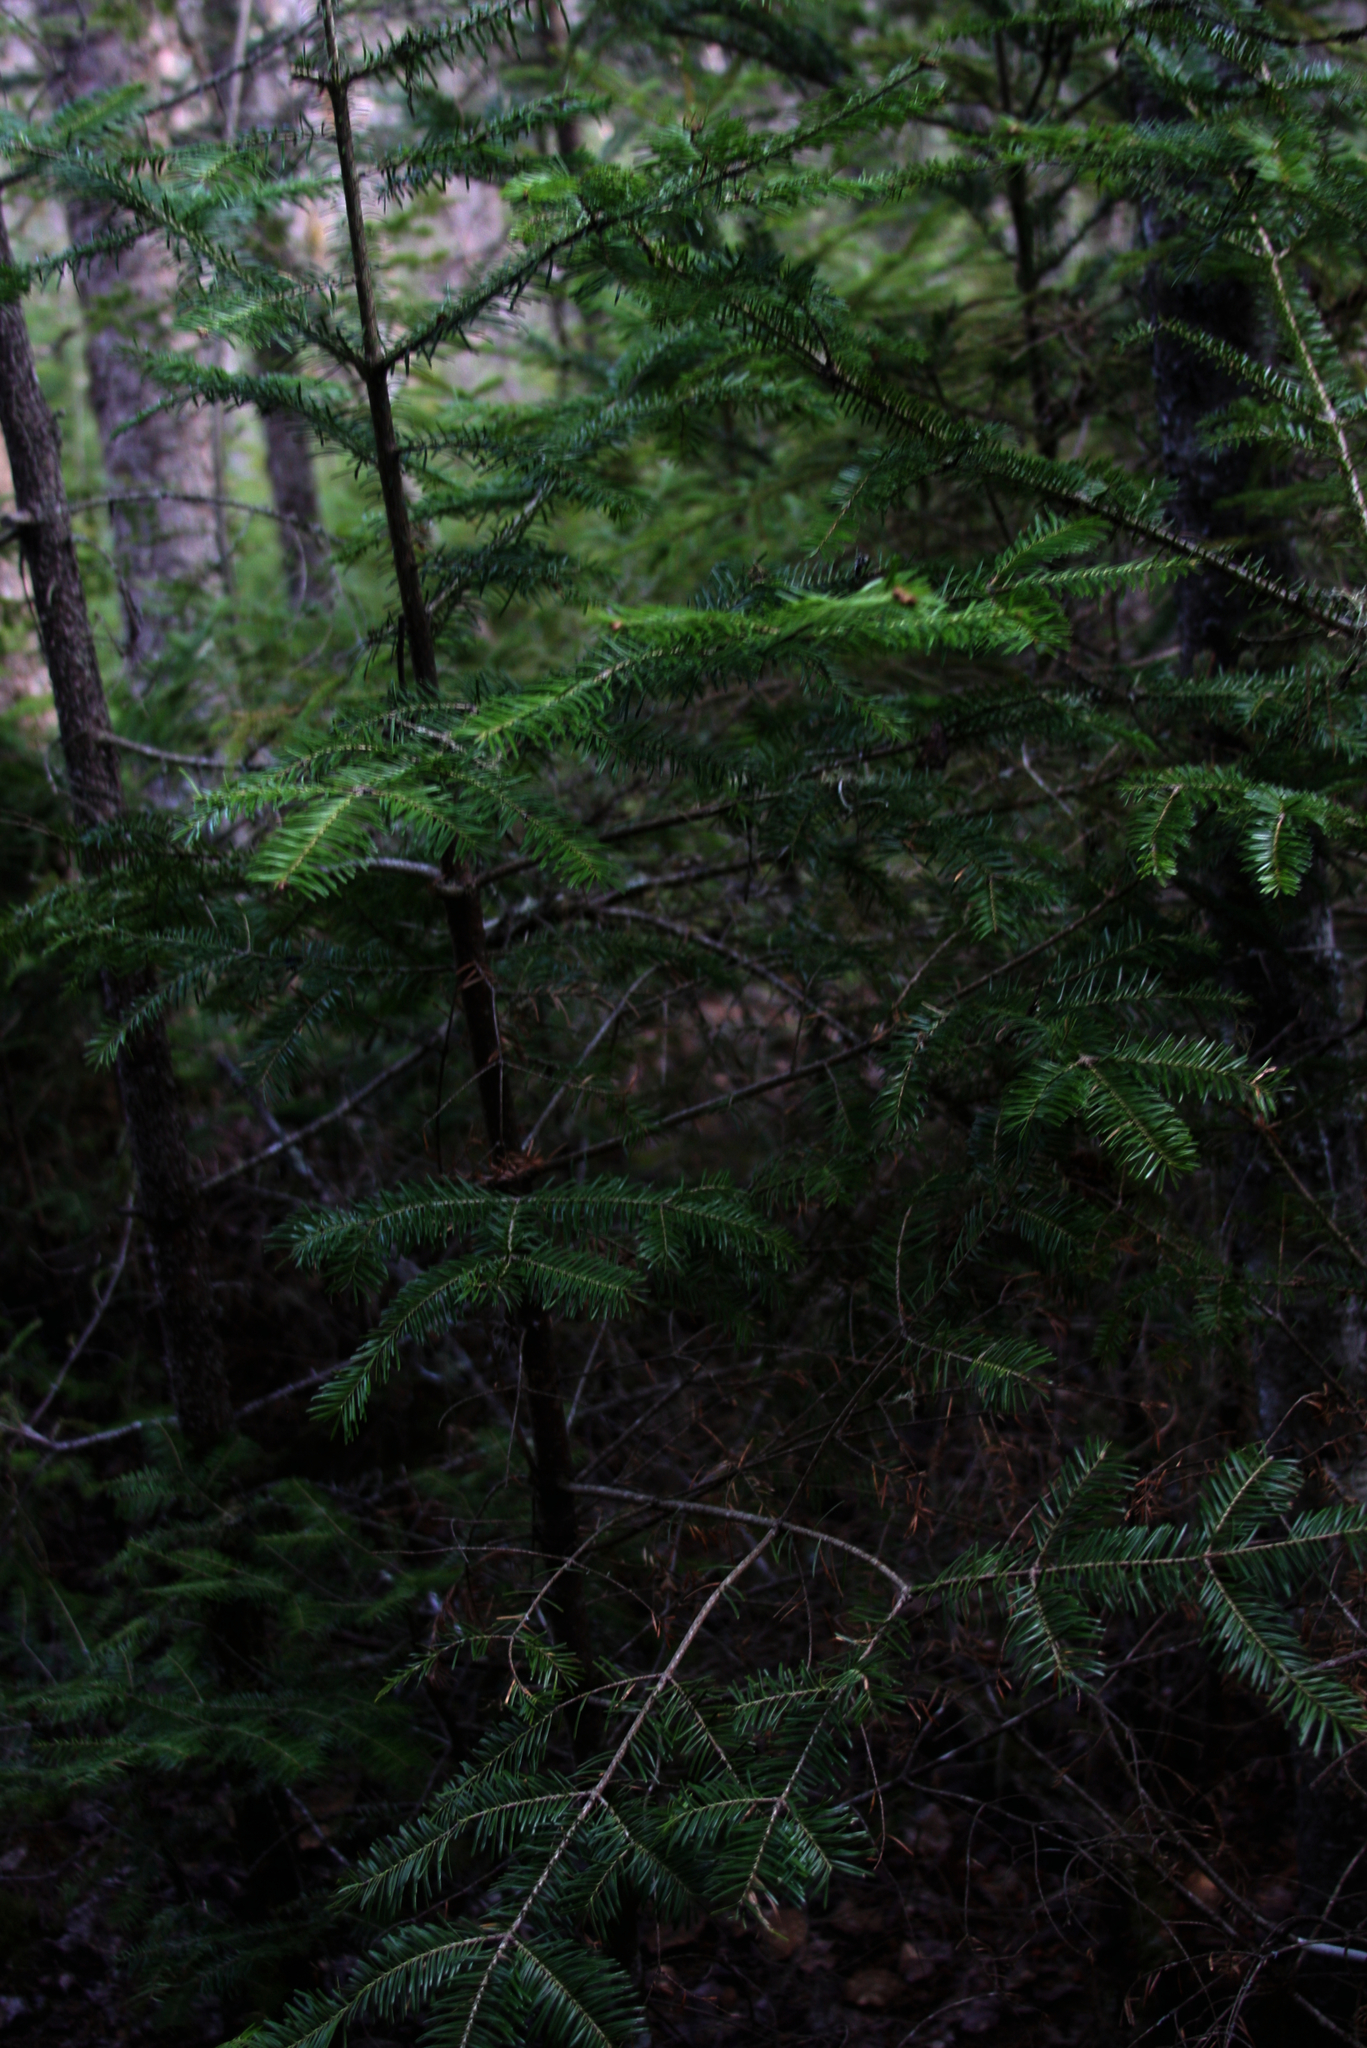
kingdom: Plantae
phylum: Tracheophyta
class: Pinopsida
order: Pinales
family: Pinaceae
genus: Abies
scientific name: Abies balsamea
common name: Balsam fir
